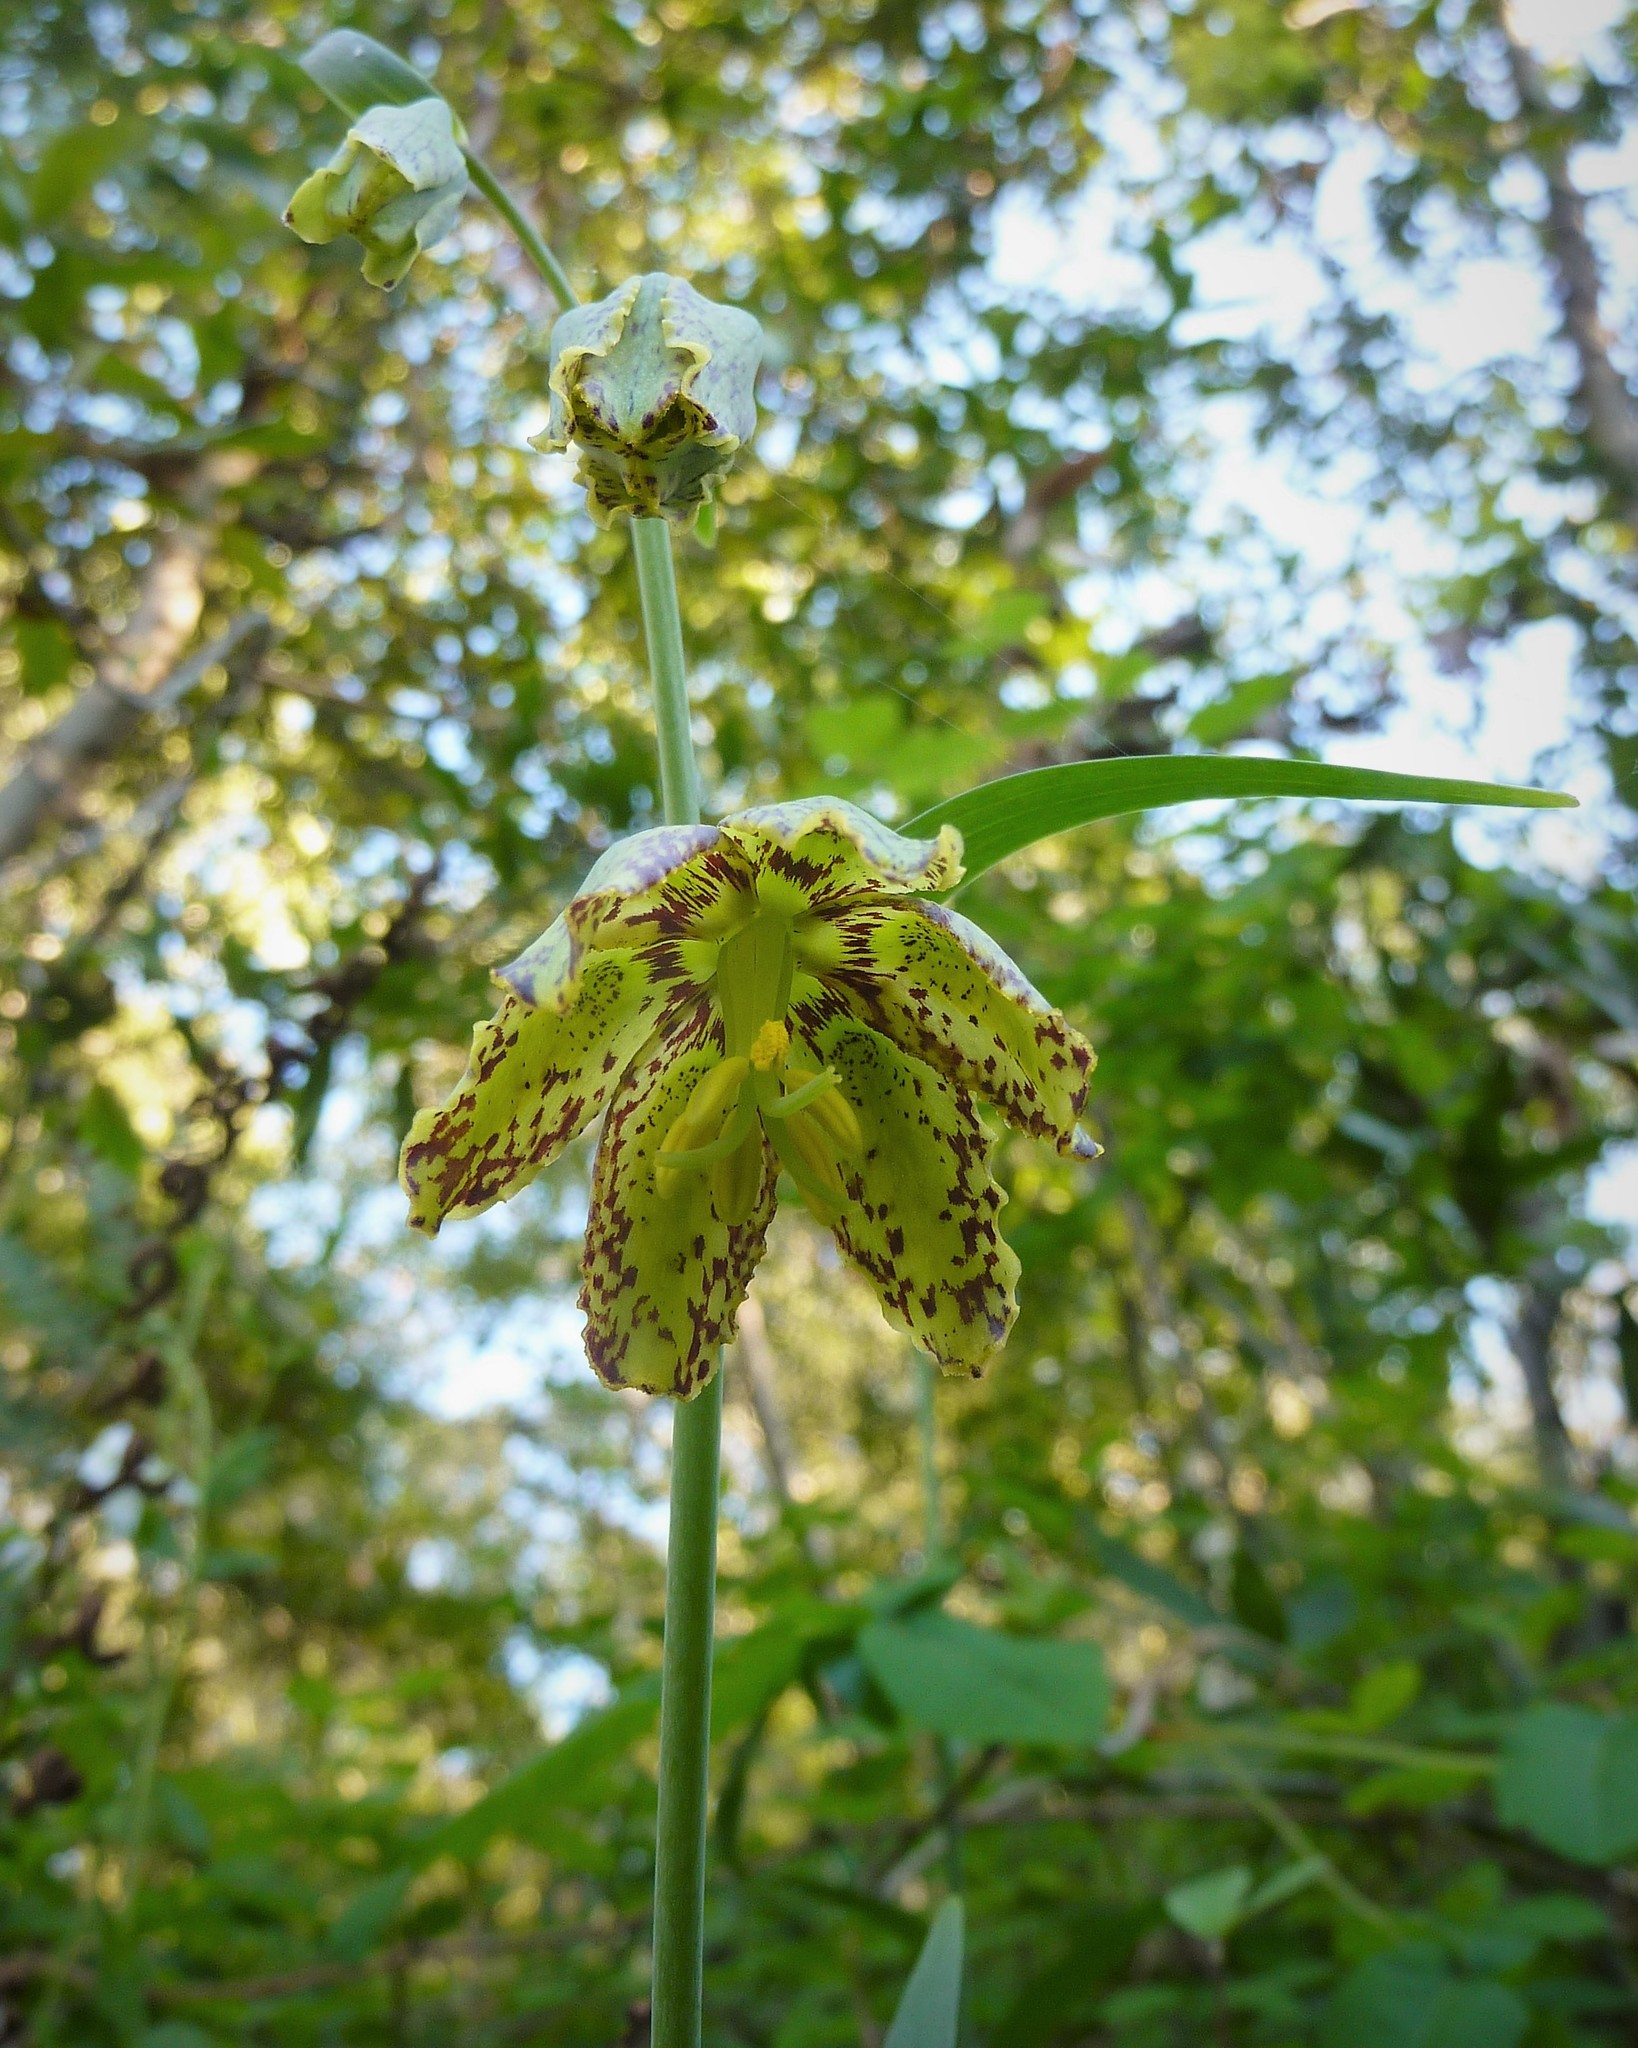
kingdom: Plantae
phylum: Tracheophyta
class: Liliopsida
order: Liliales
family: Liliaceae
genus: Fritillaria
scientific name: Fritillaria affinis
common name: Ojai fritillary
